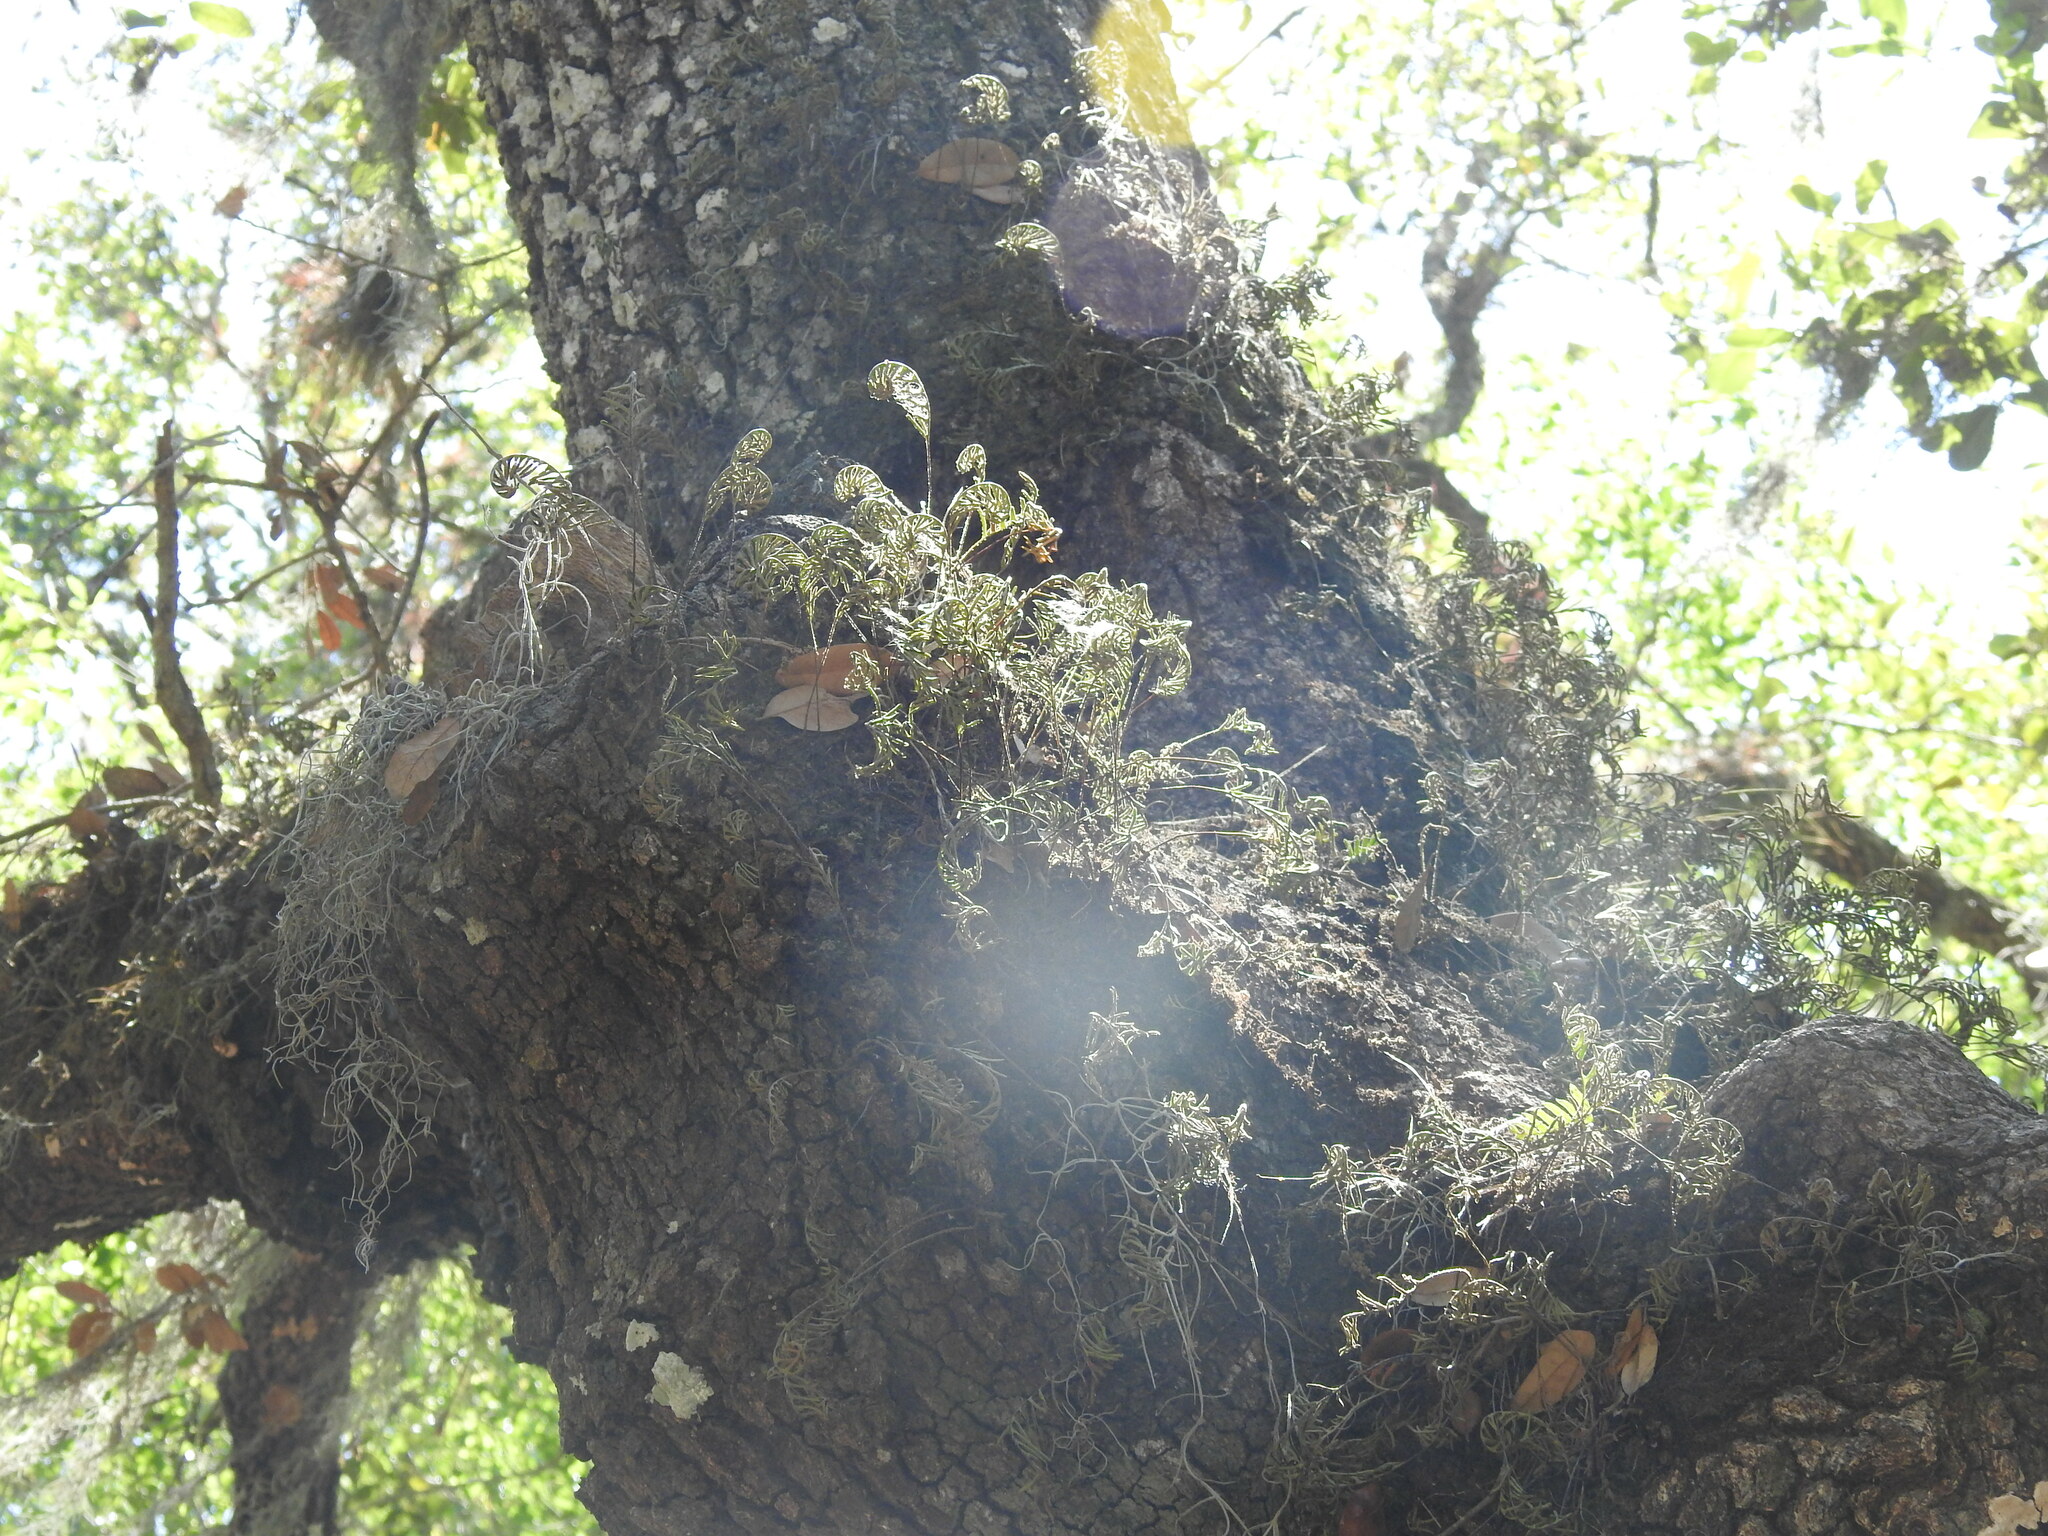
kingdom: Plantae
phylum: Tracheophyta
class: Polypodiopsida
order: Polypodiales
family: Polypodiaceae
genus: Pleopeltis
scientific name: Pleopeltis michauxiana
